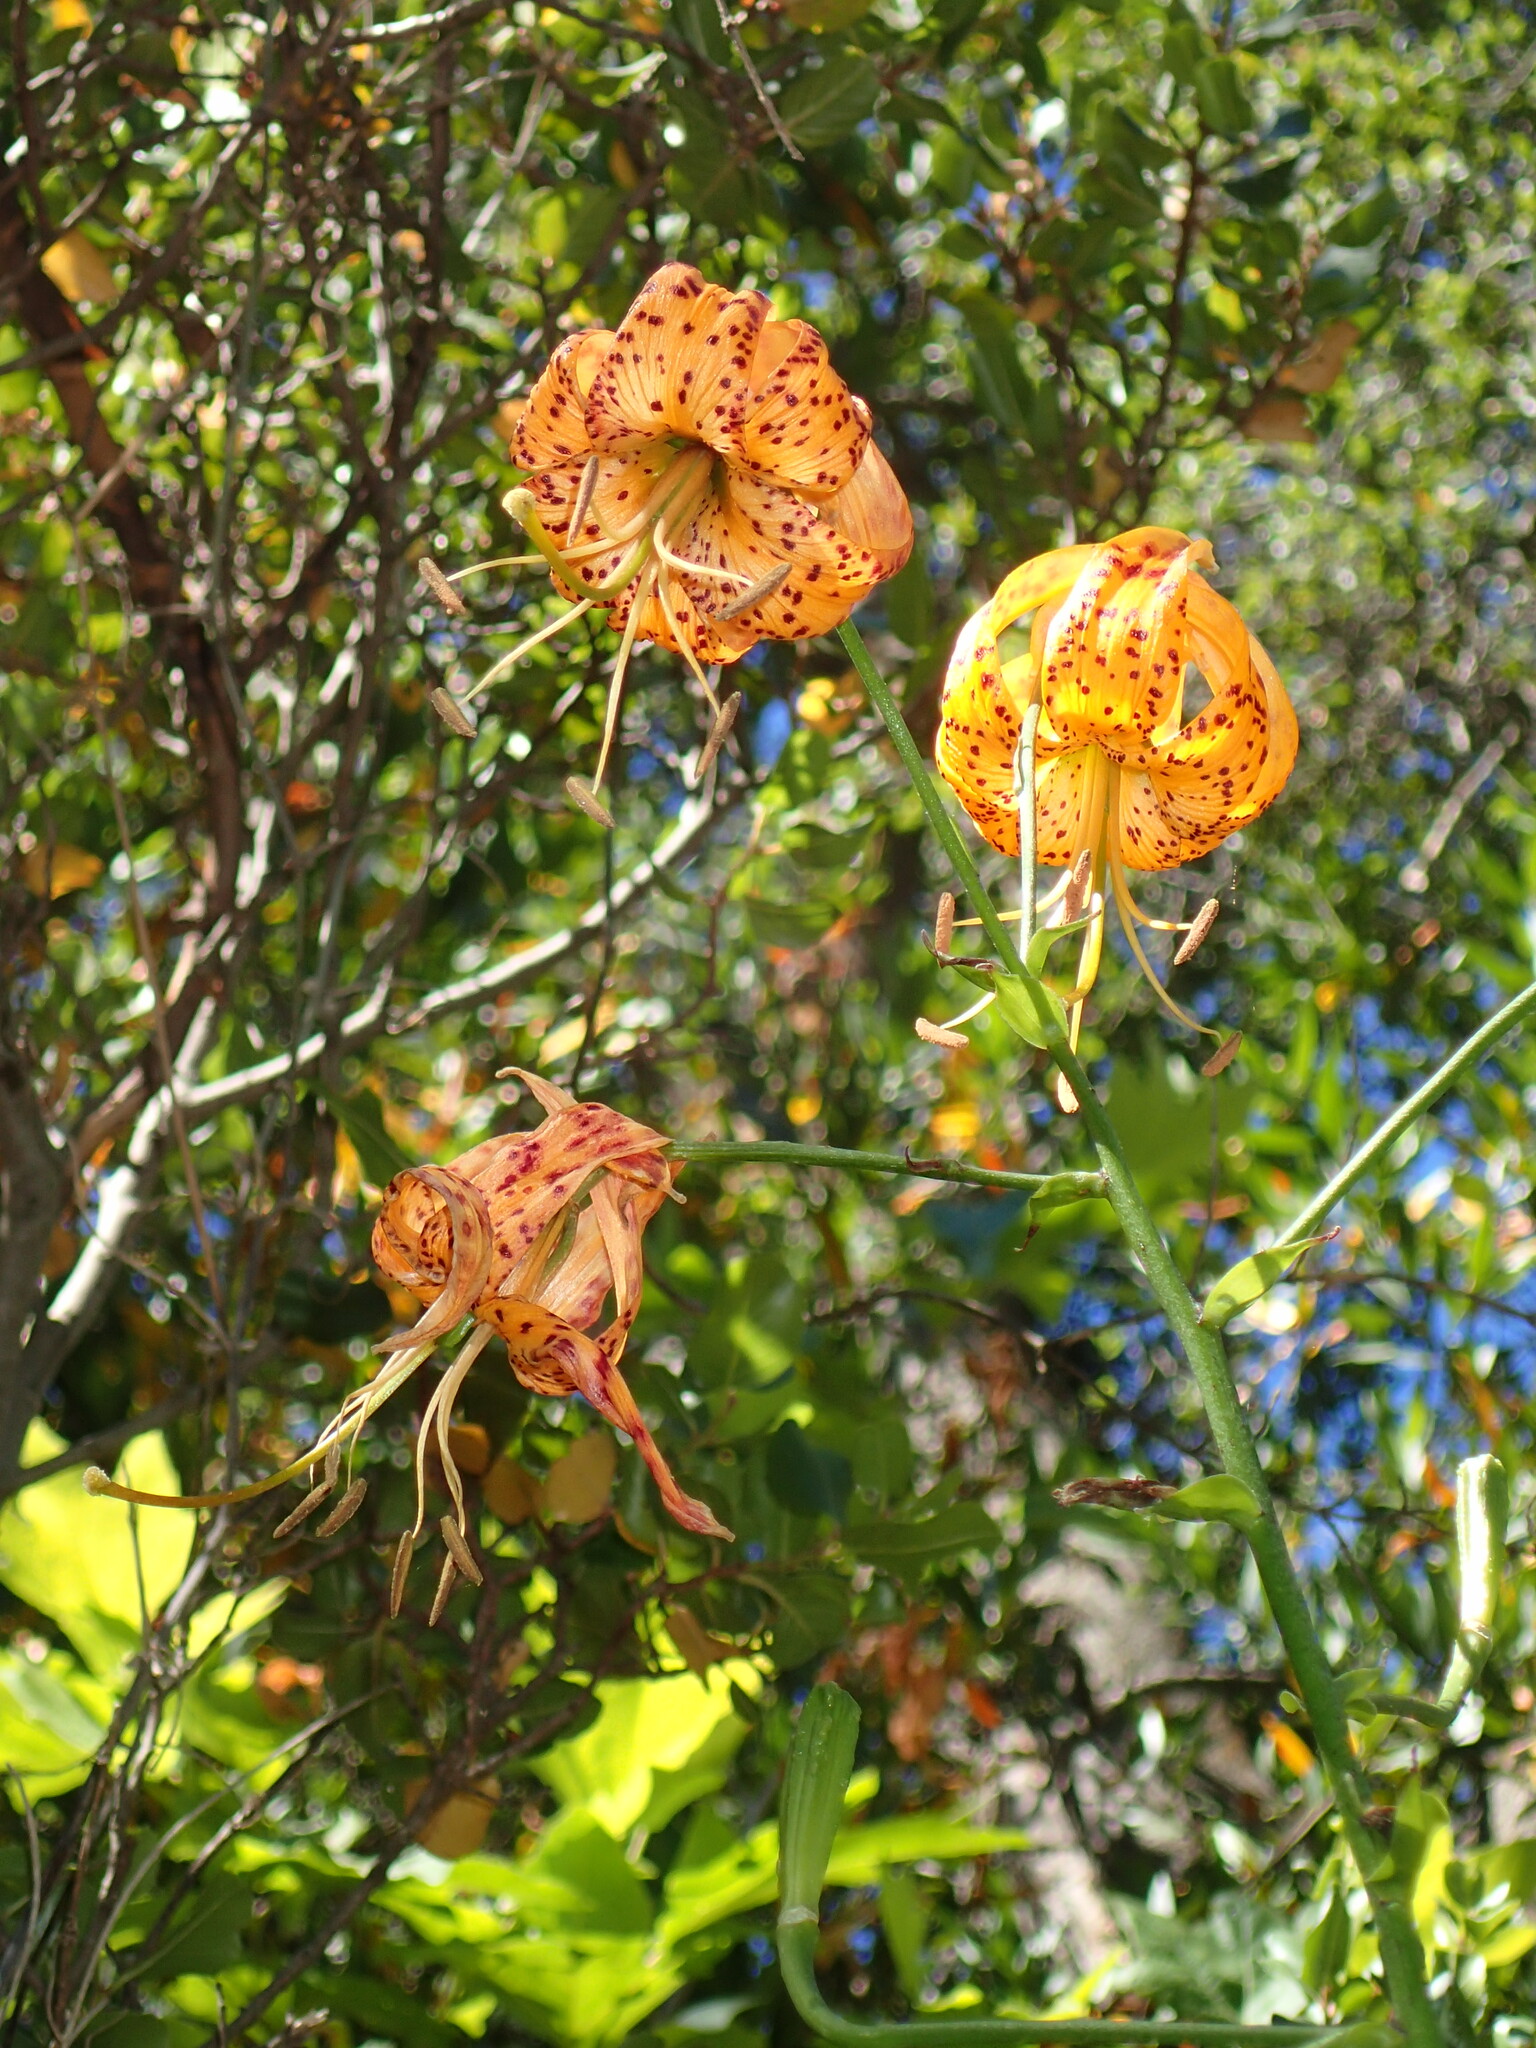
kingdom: Plantae
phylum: Tracheophyta
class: Liliopsida
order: Liliales
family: Liliaceae
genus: Lilium
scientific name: Lilium humboldtii
